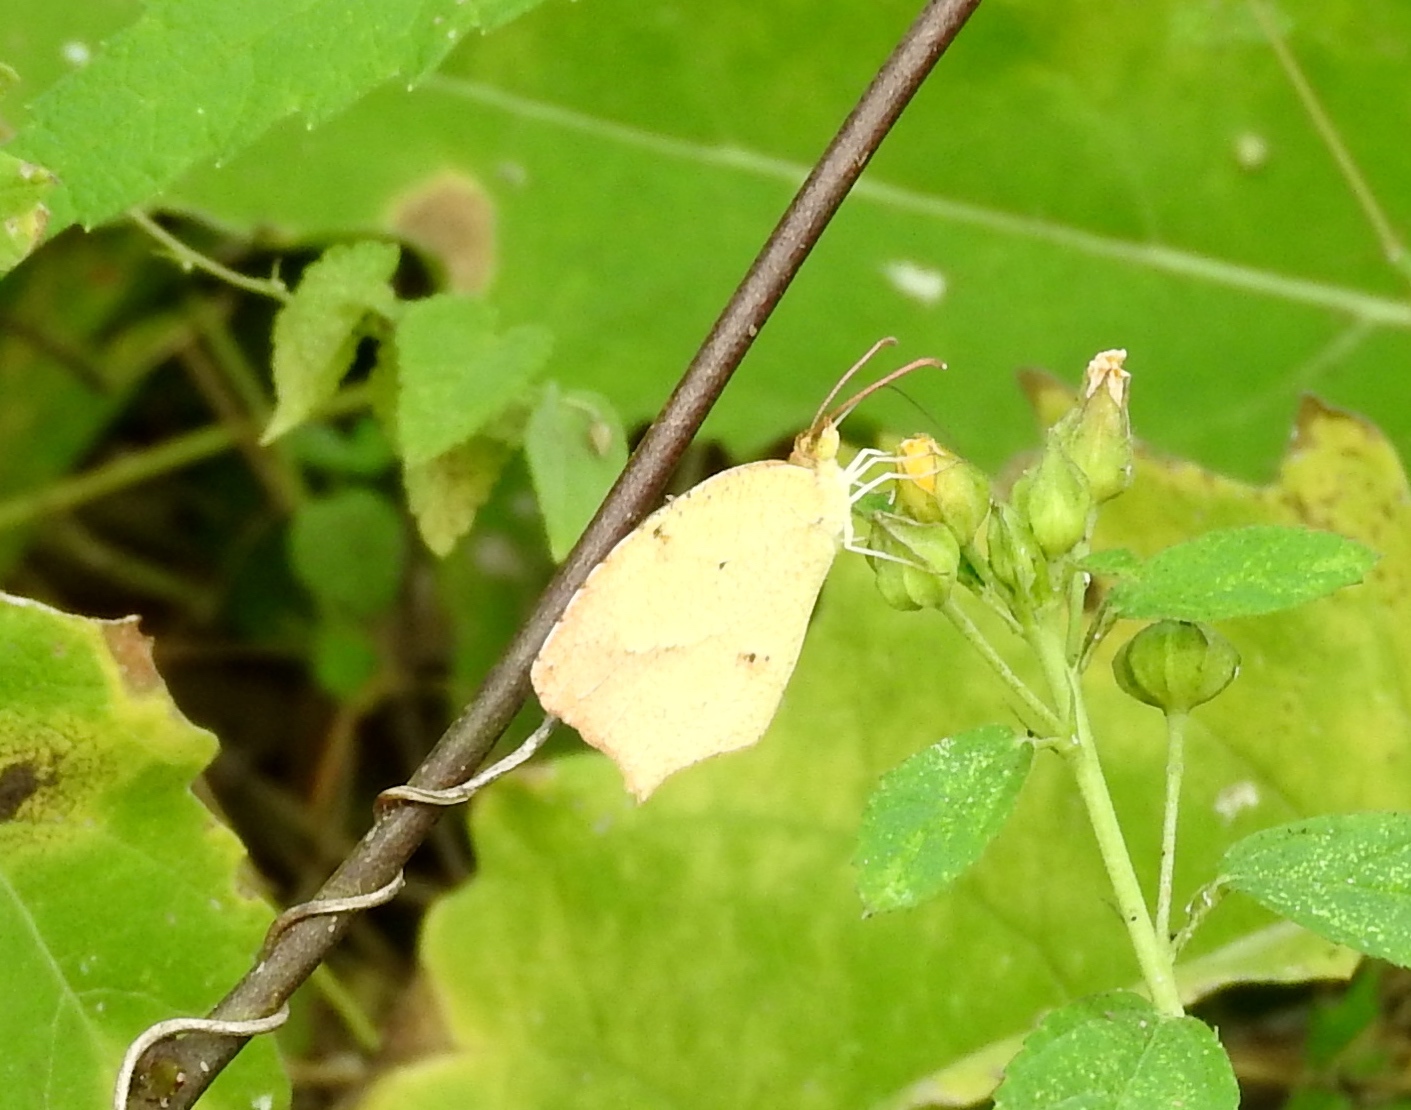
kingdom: Animalia
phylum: Arthropoda
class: Insecta
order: Lepidoptera
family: Pieridae
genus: Abaeis
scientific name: Abaeis salome
